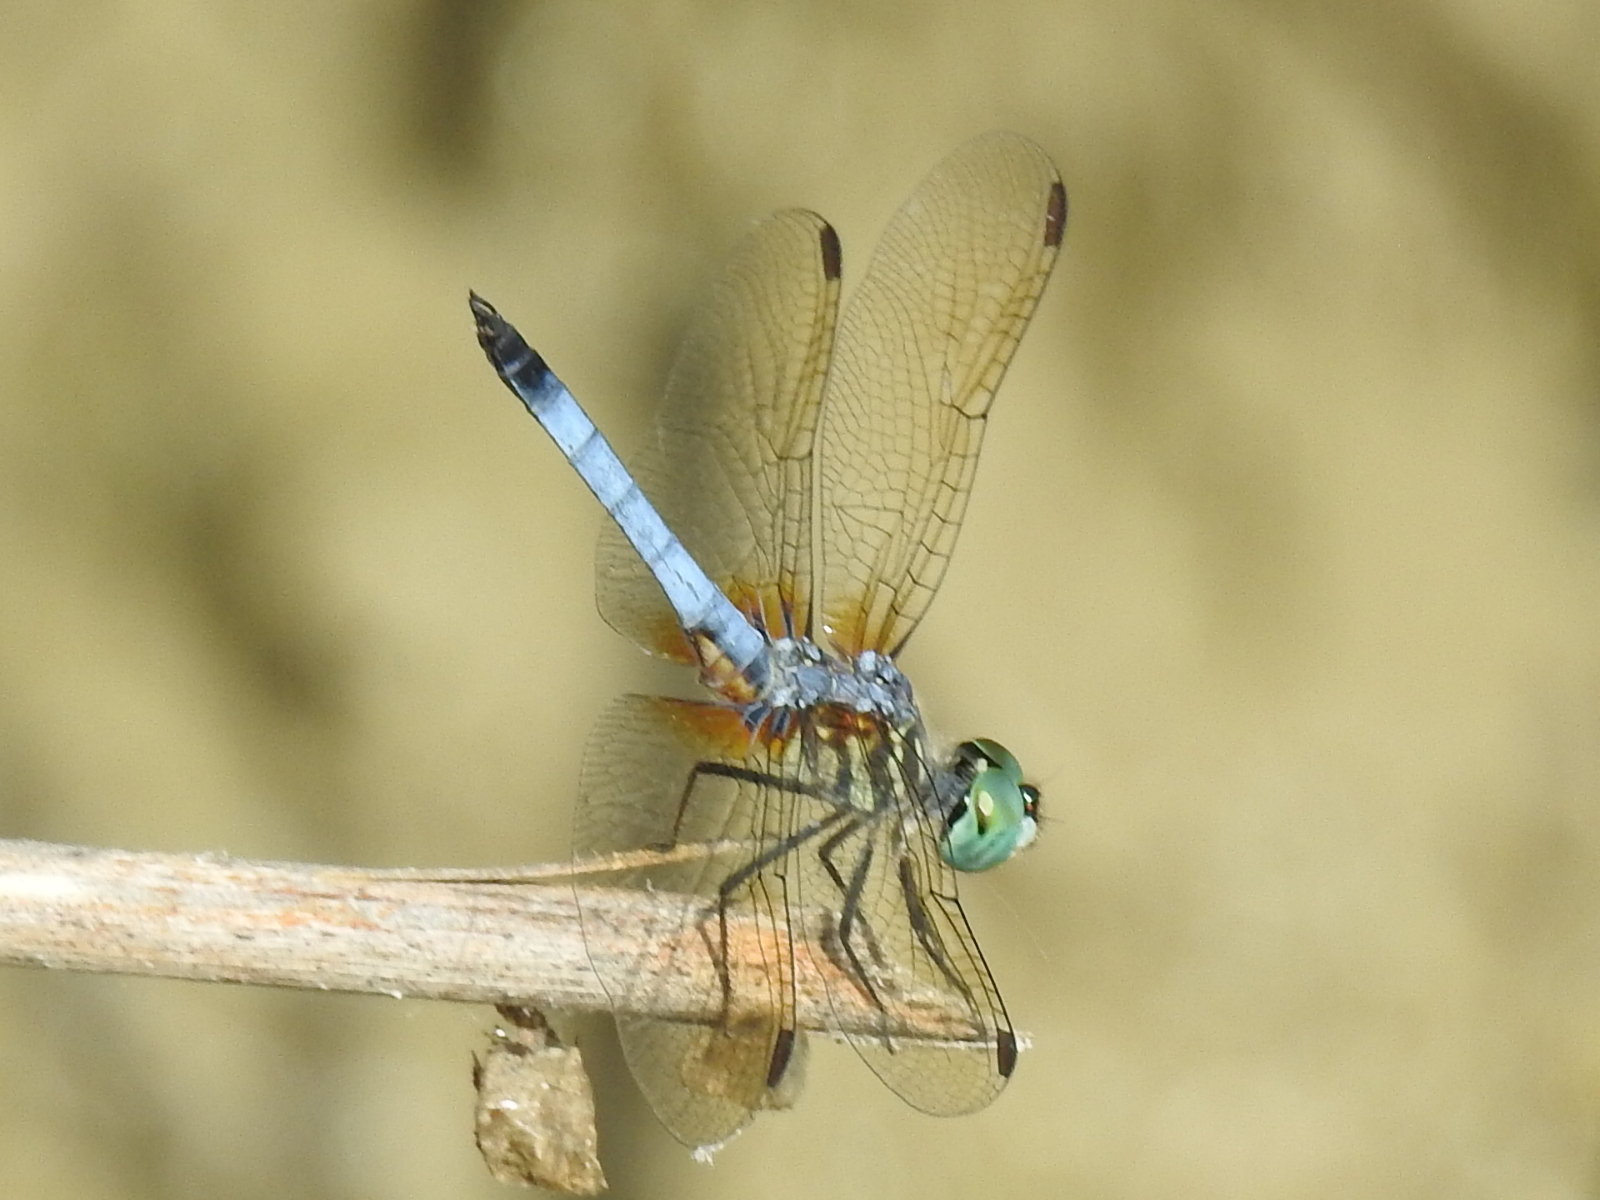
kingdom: Animalia
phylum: Arthropoda
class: Insecta
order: Odonata
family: Libellulidae
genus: Pachydiplax
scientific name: Pachydiplax longipennis
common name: Blue dasher
